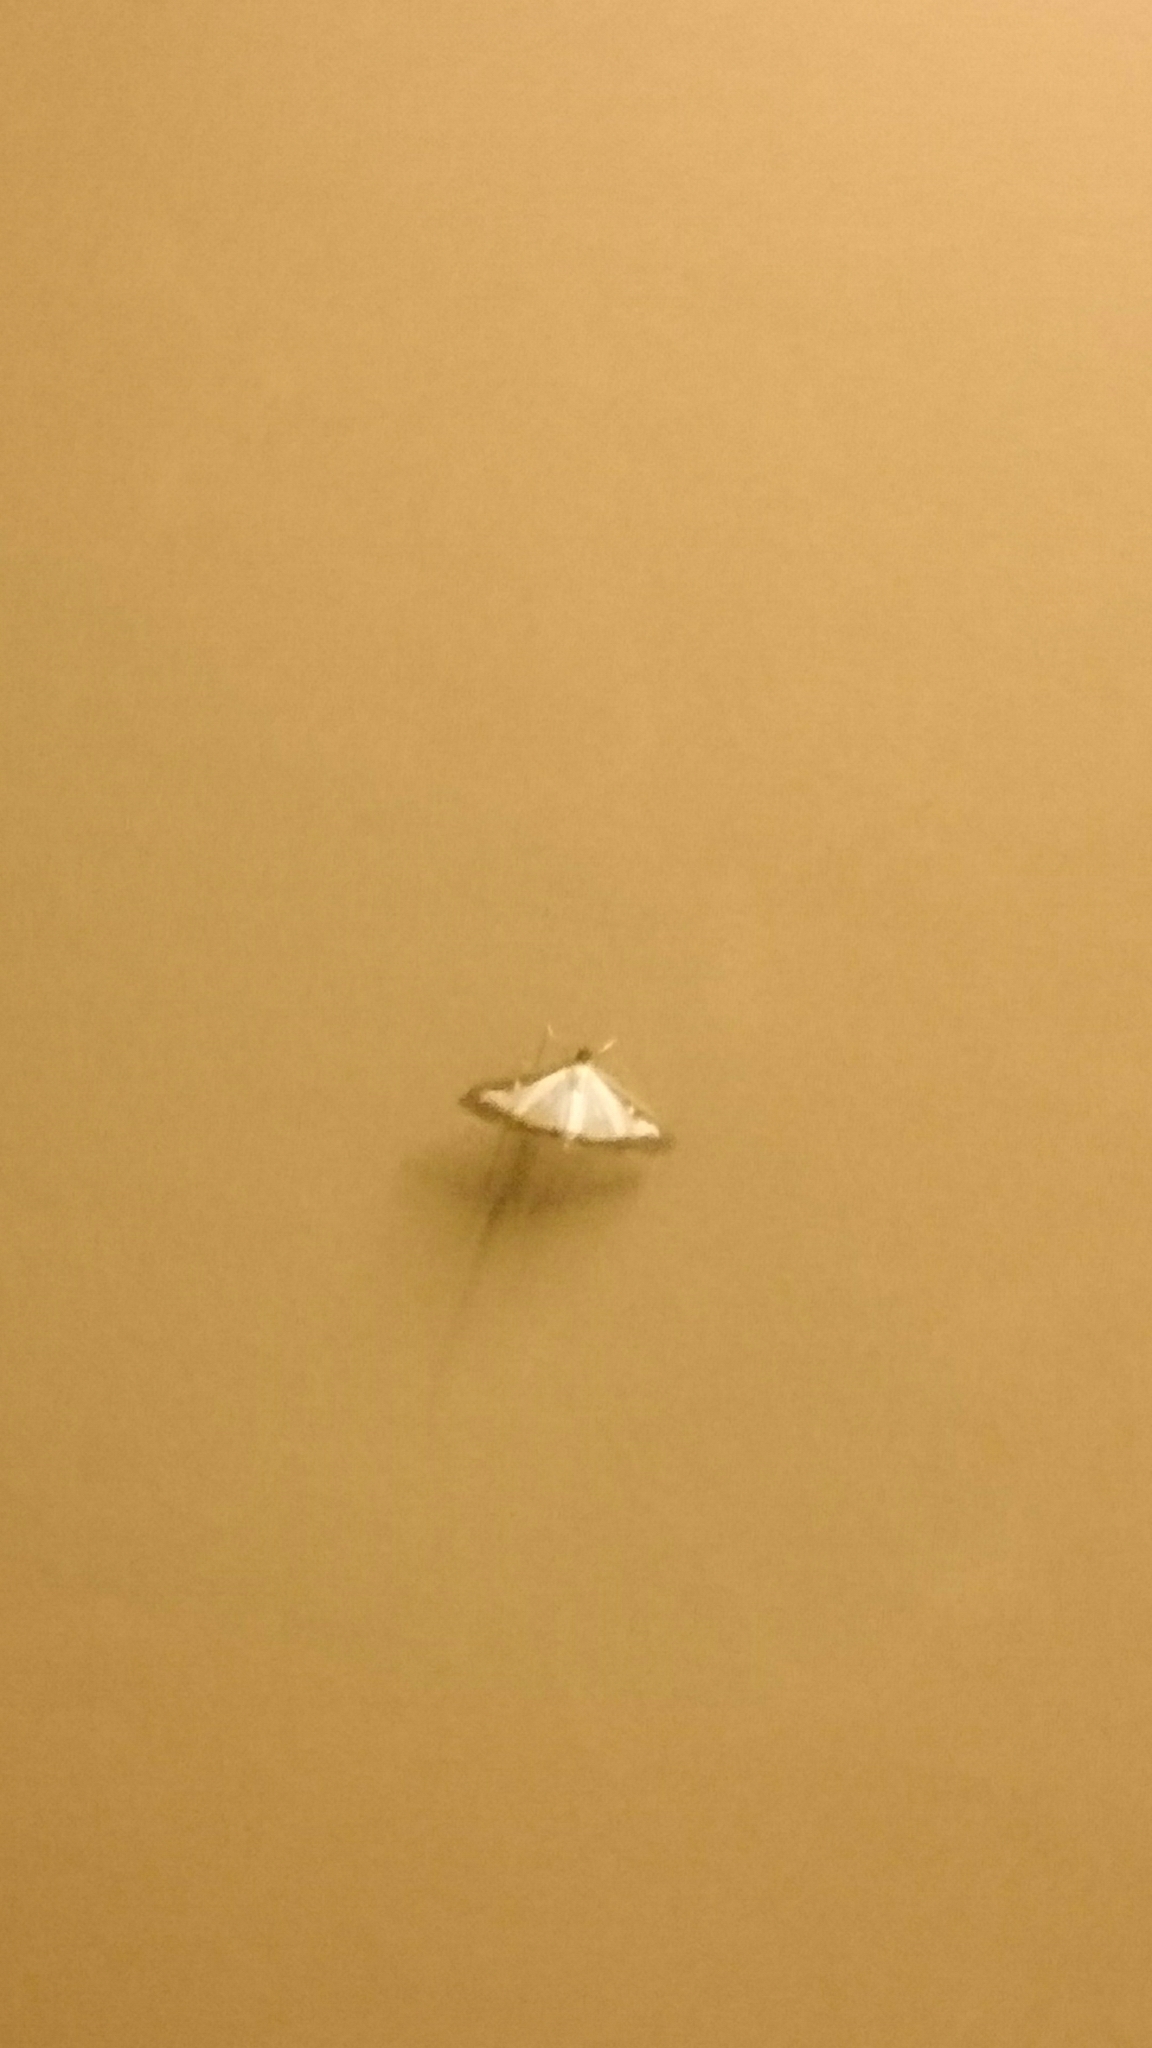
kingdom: Animalia
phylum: Arthropoda
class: Insecta
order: Lepidoptera
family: Crambidae
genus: Cydalima
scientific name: Cydalima perspectalis
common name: Box tree moth
